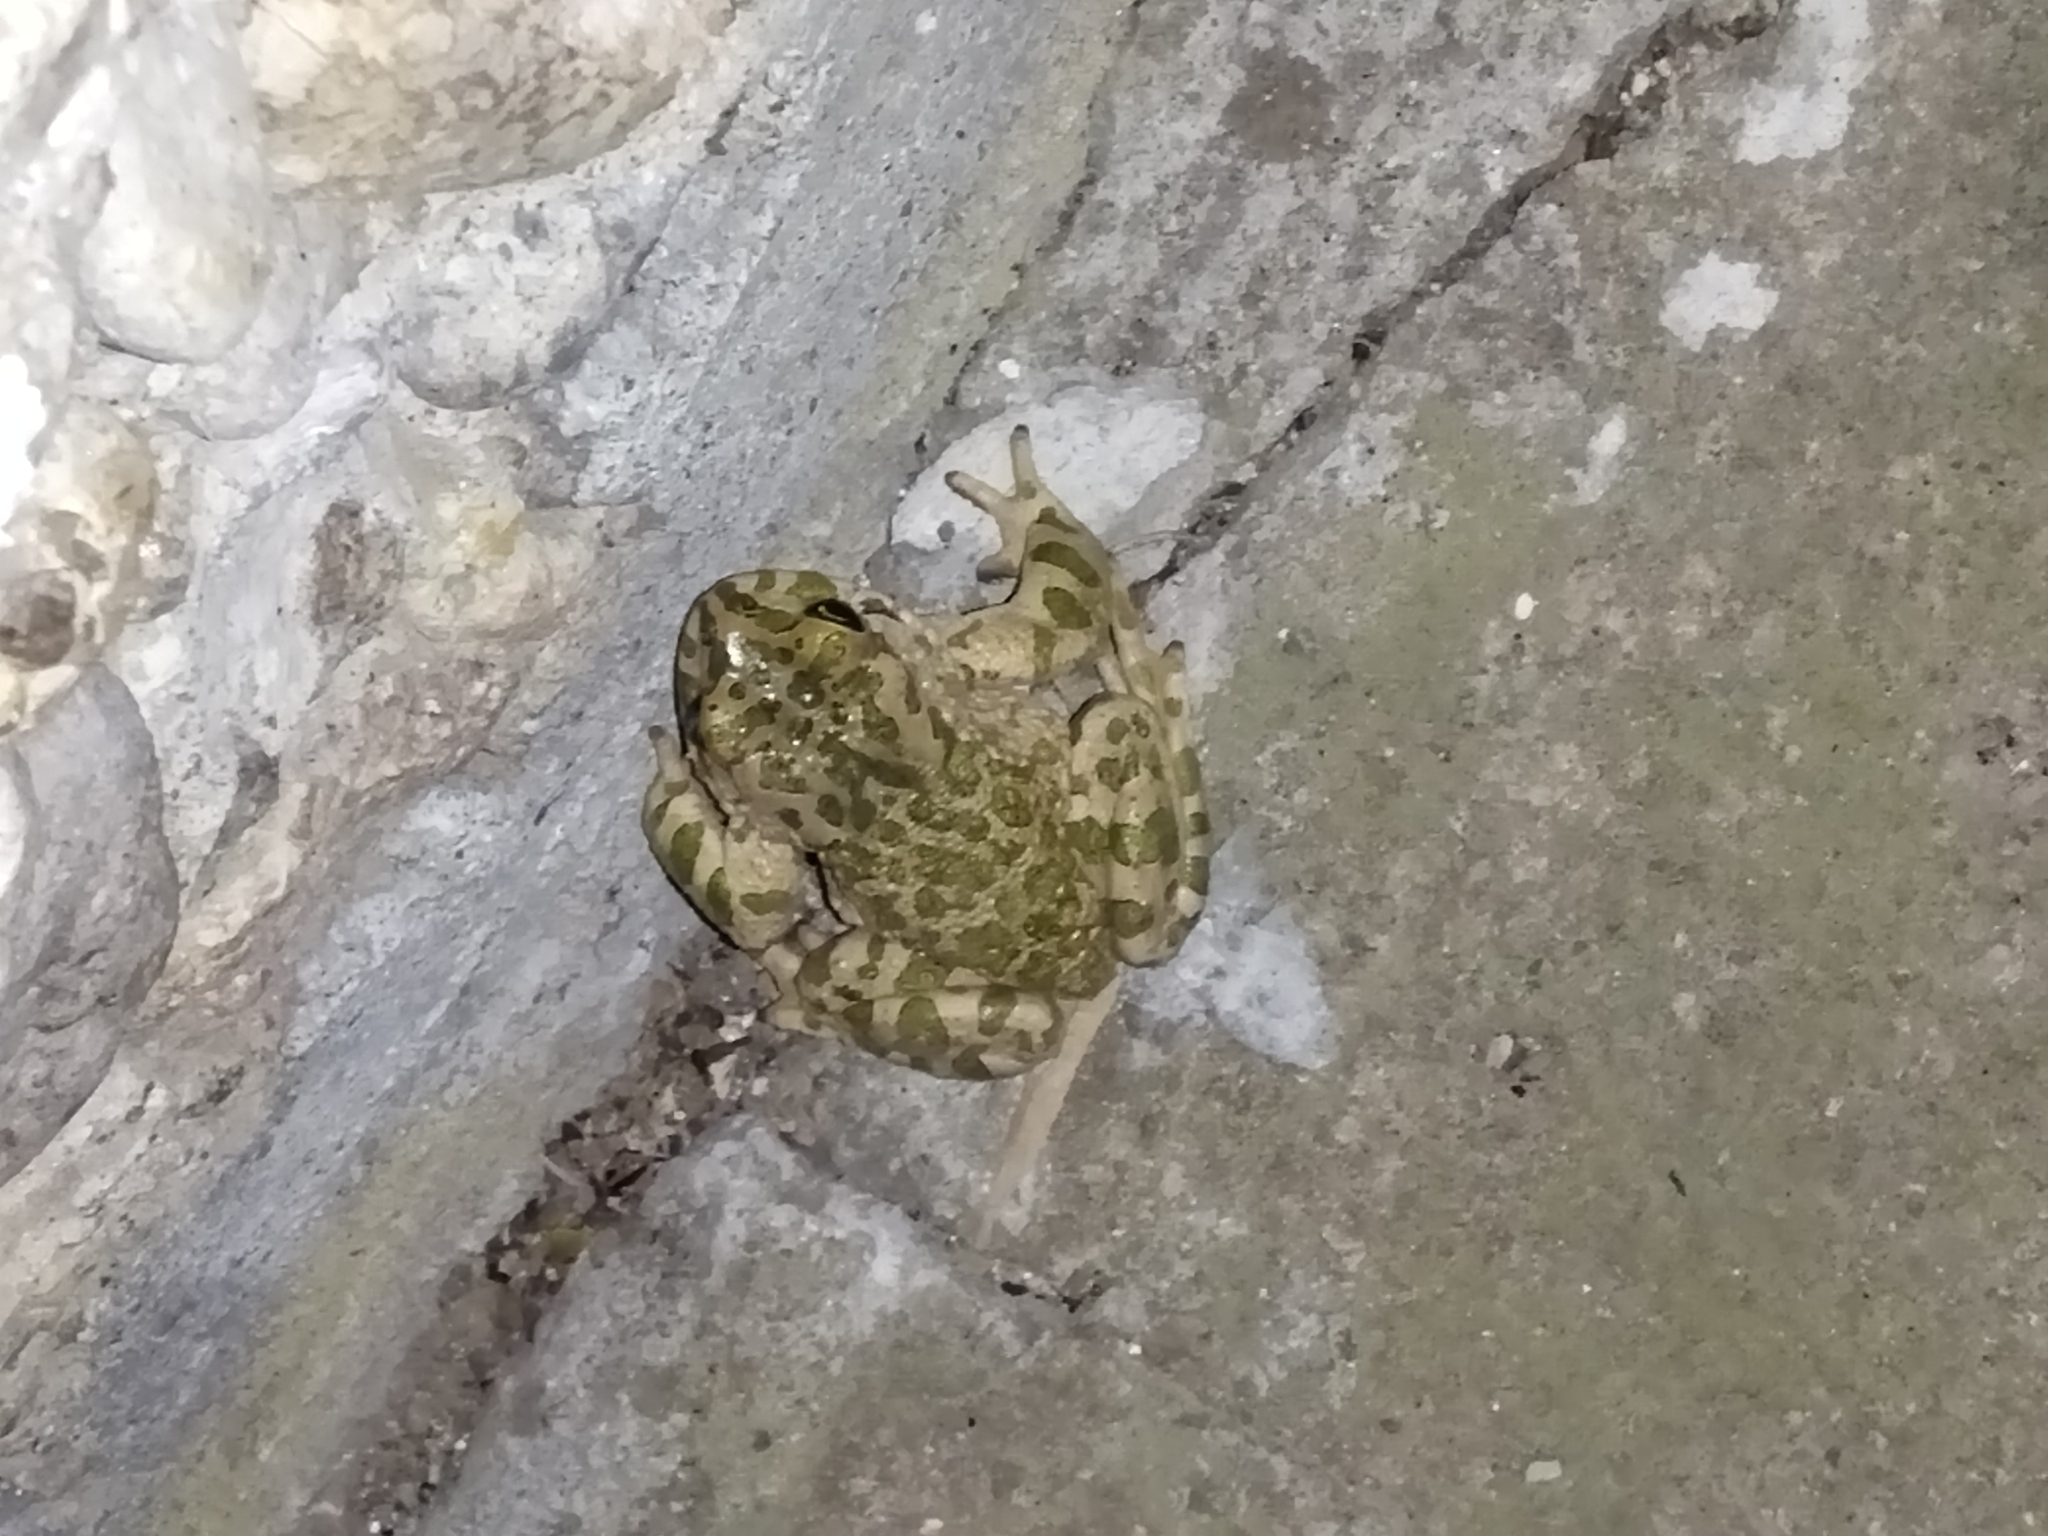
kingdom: Animalia
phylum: Chordata
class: Amphibia
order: Anura
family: Bufonidae
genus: Bufotes
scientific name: Bufotes viridis
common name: European green toad
